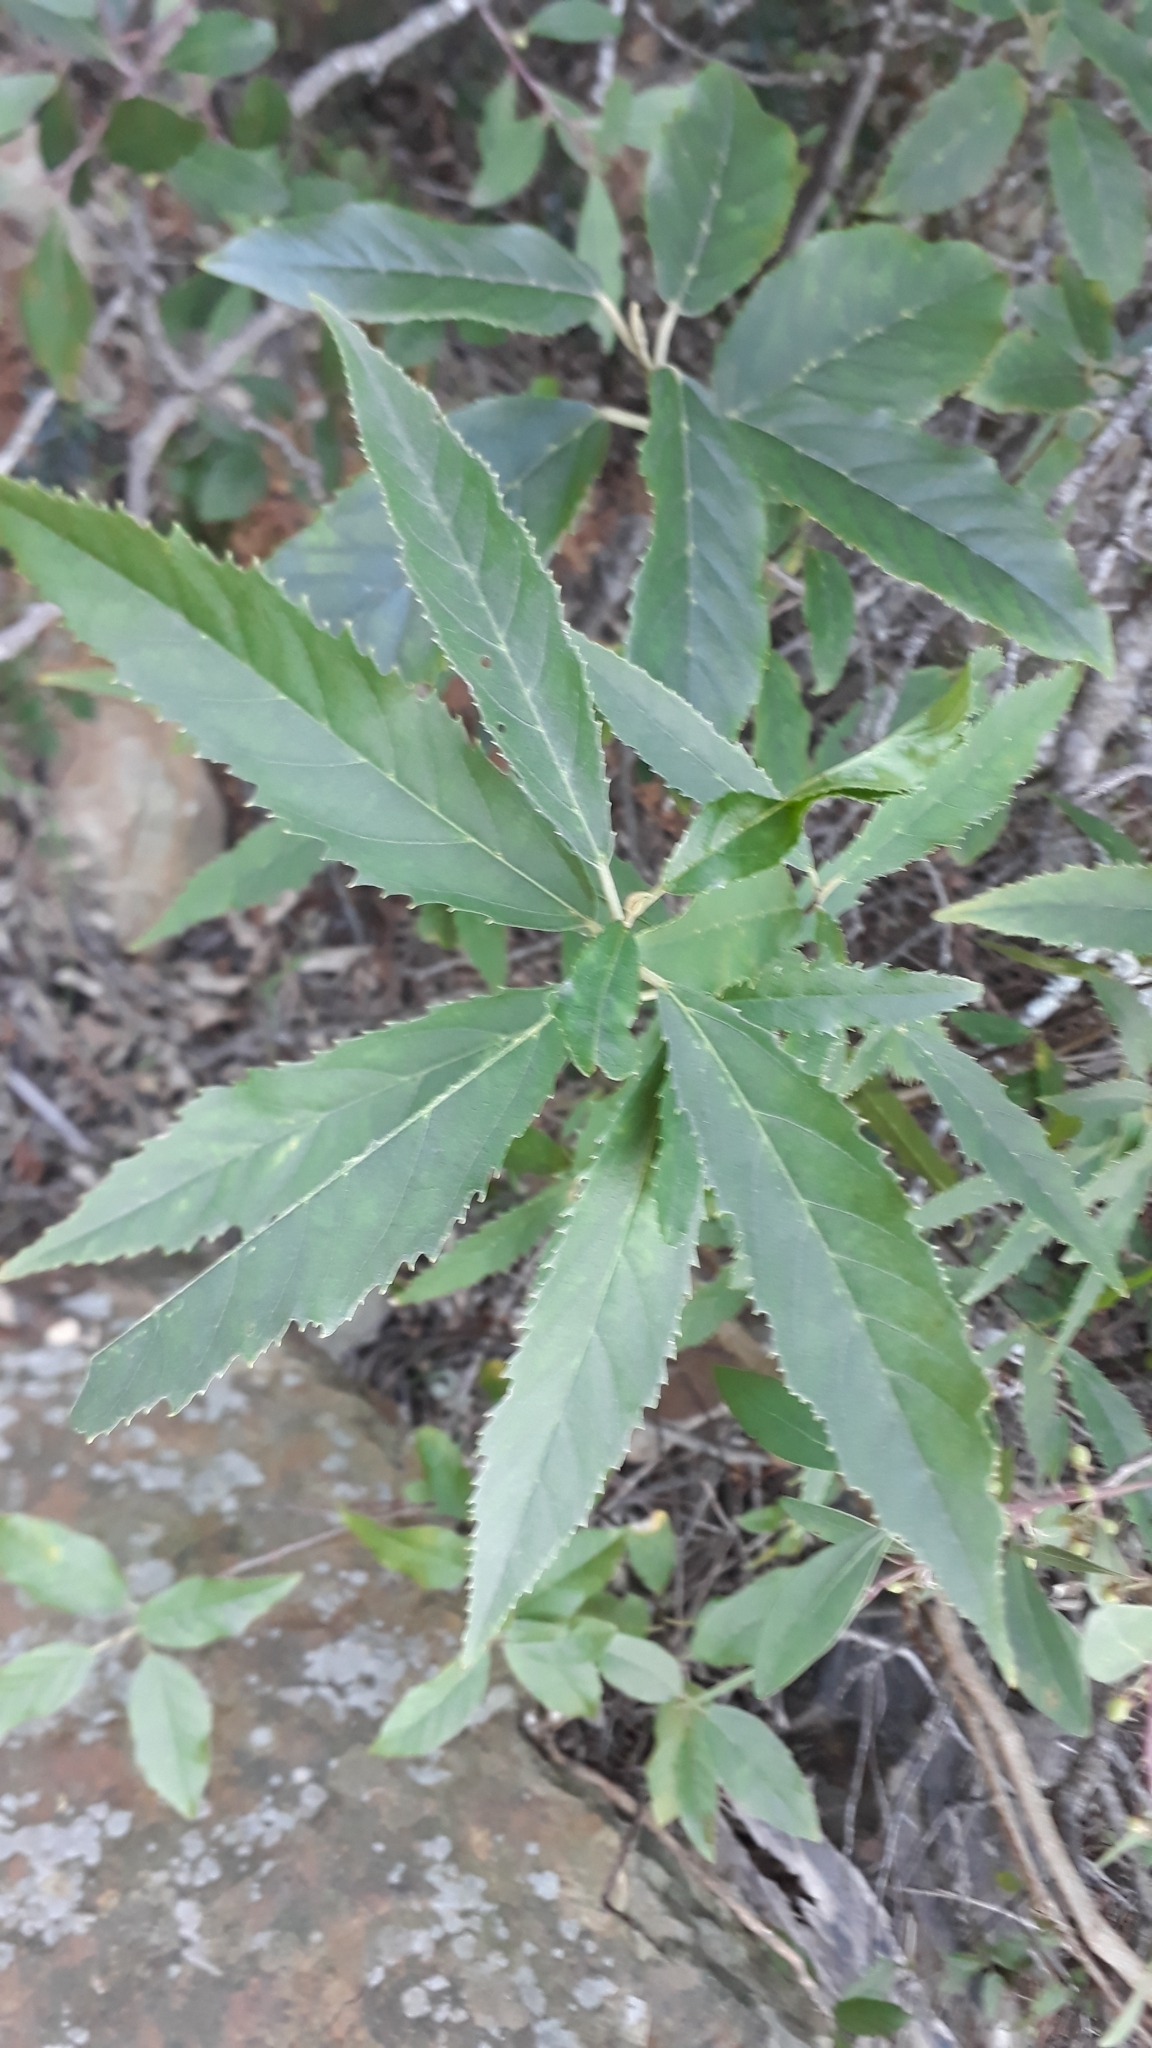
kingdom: Plantae
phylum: Tracheophyta
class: Magnoliopsida
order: Malpighiales
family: Achariaceae
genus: Kiggelaria
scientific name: Kiggelaria africana
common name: Wild peach
